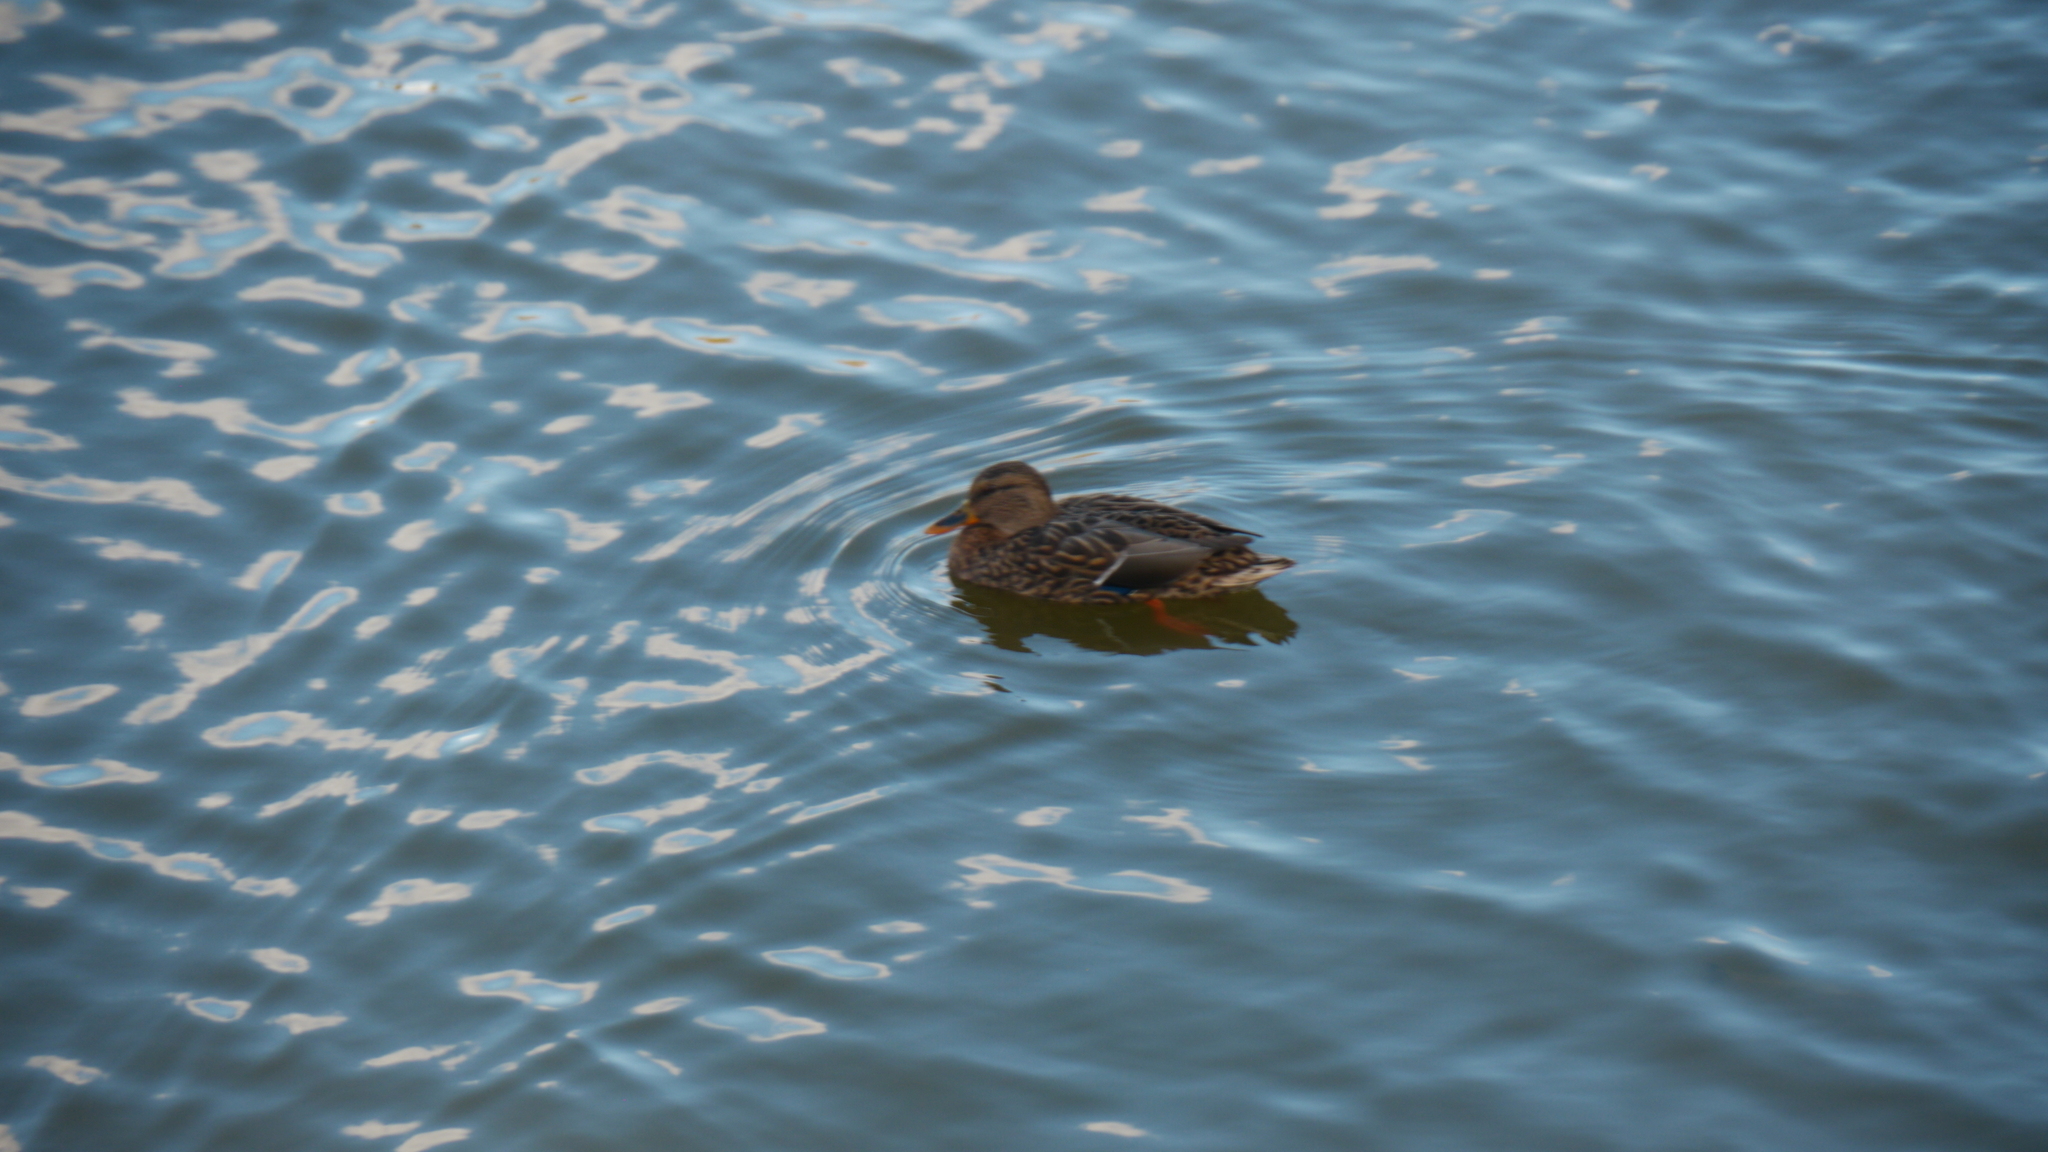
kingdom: Animalia
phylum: Chordata
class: Aves
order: Anseriformes
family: Anatidae
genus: Anas
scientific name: Anas platyrhynchos
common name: Mallard
